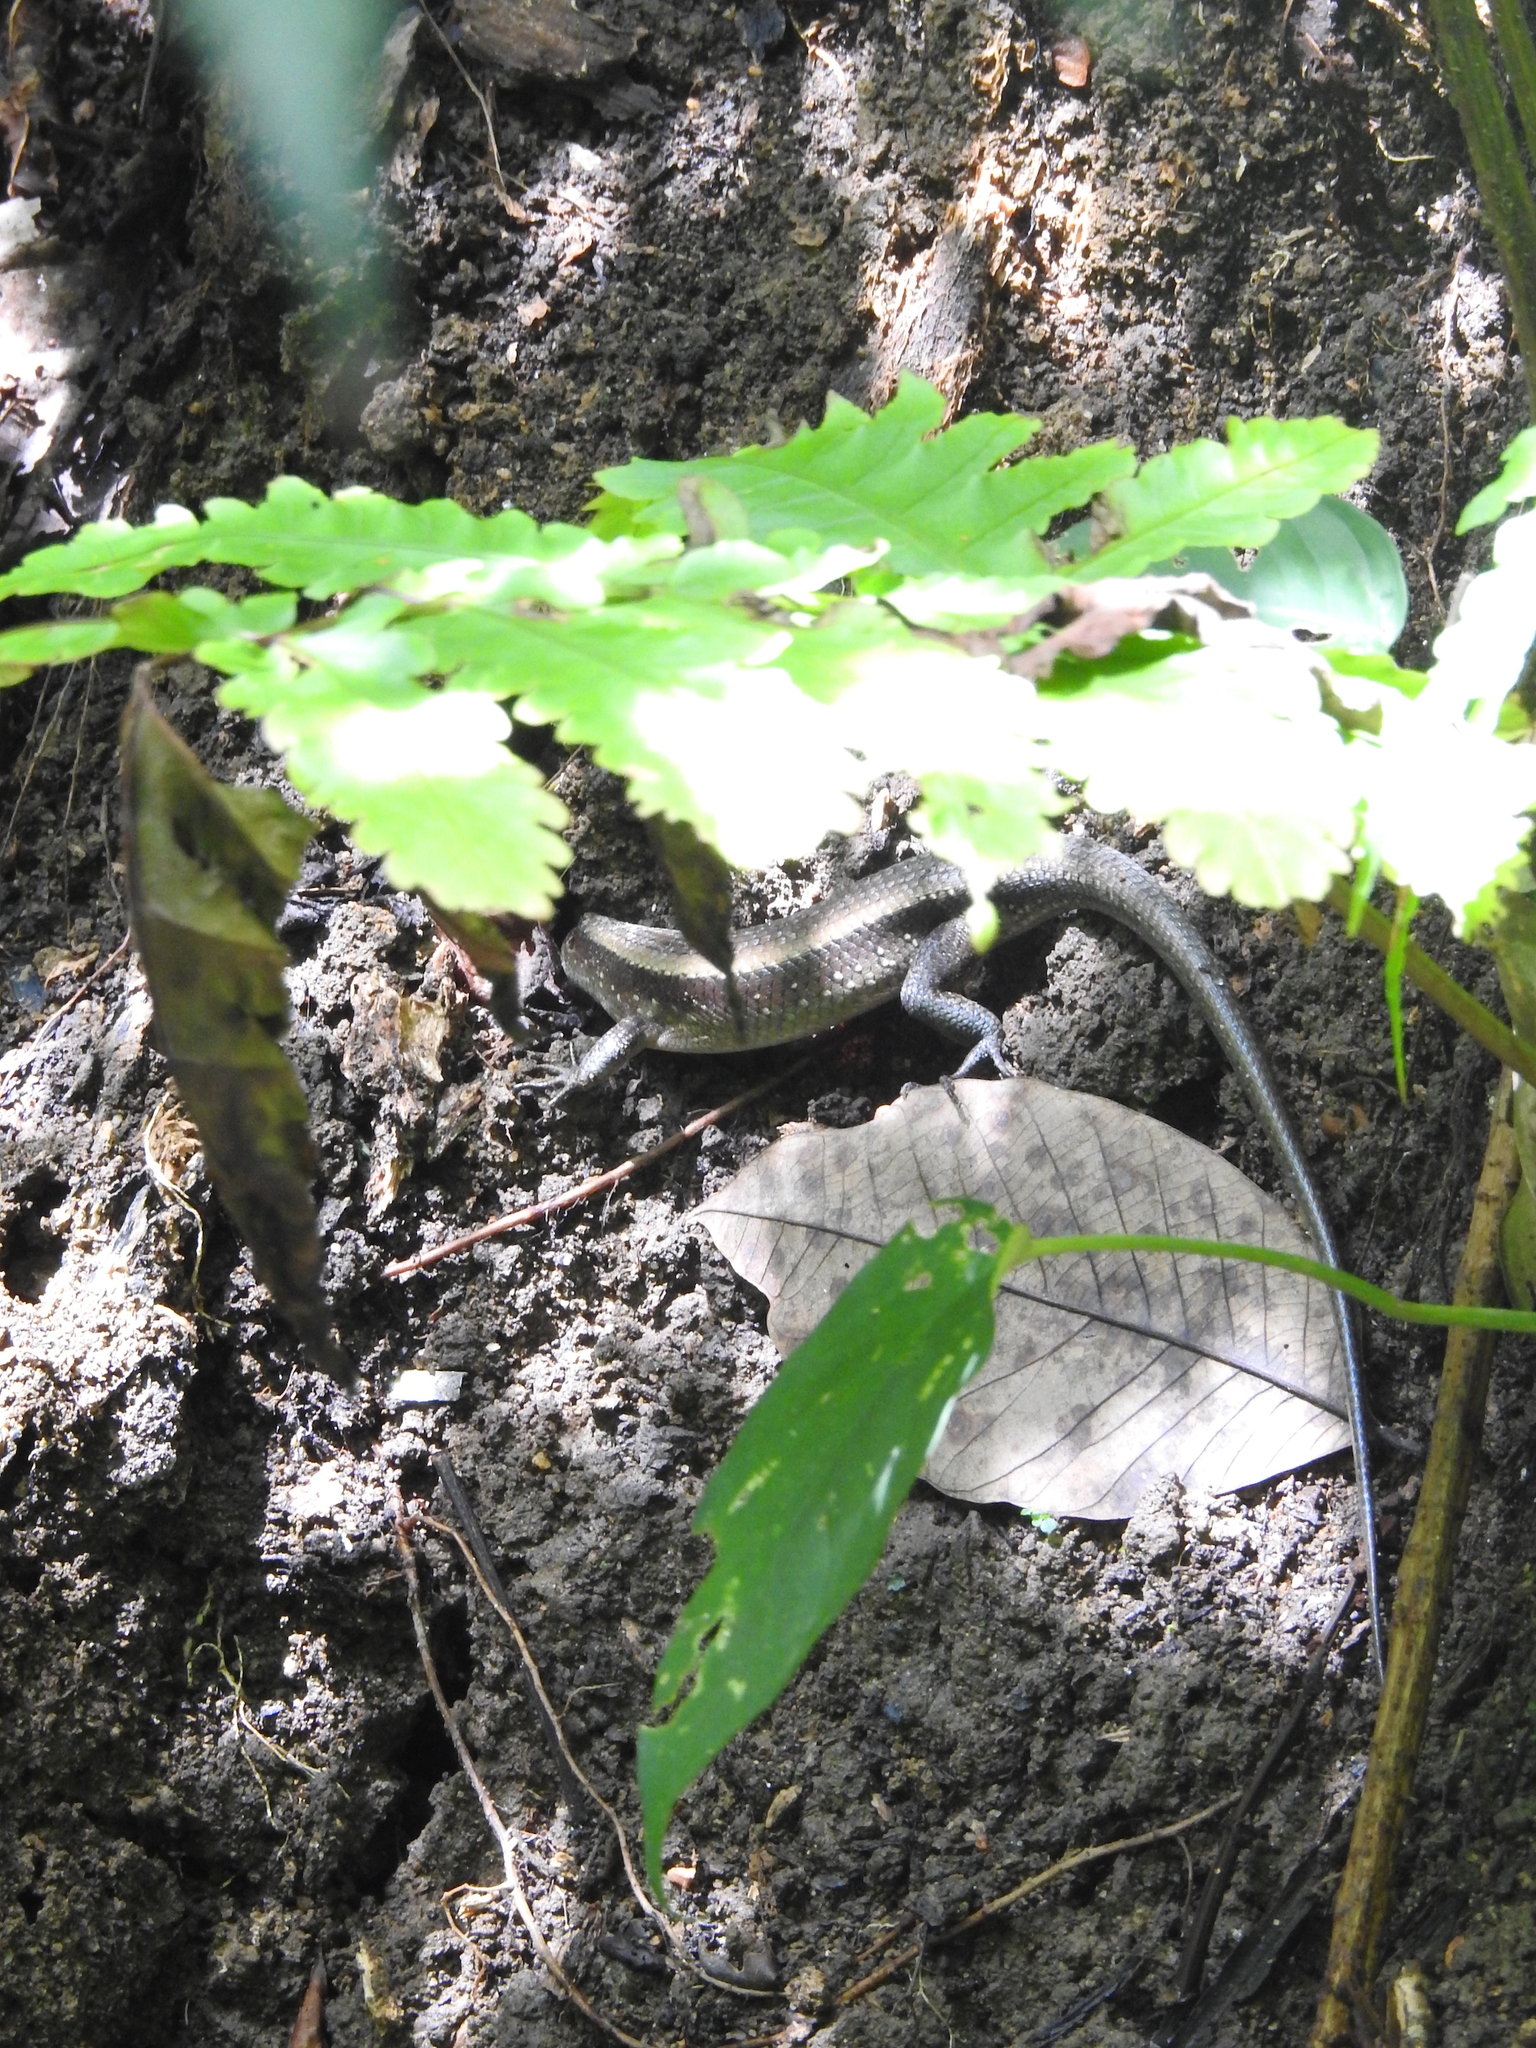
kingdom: Animalia
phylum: Chordata
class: Squamata
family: Scincidae
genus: Eutropis
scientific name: Eutropis multifasciata
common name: Common mabuya
